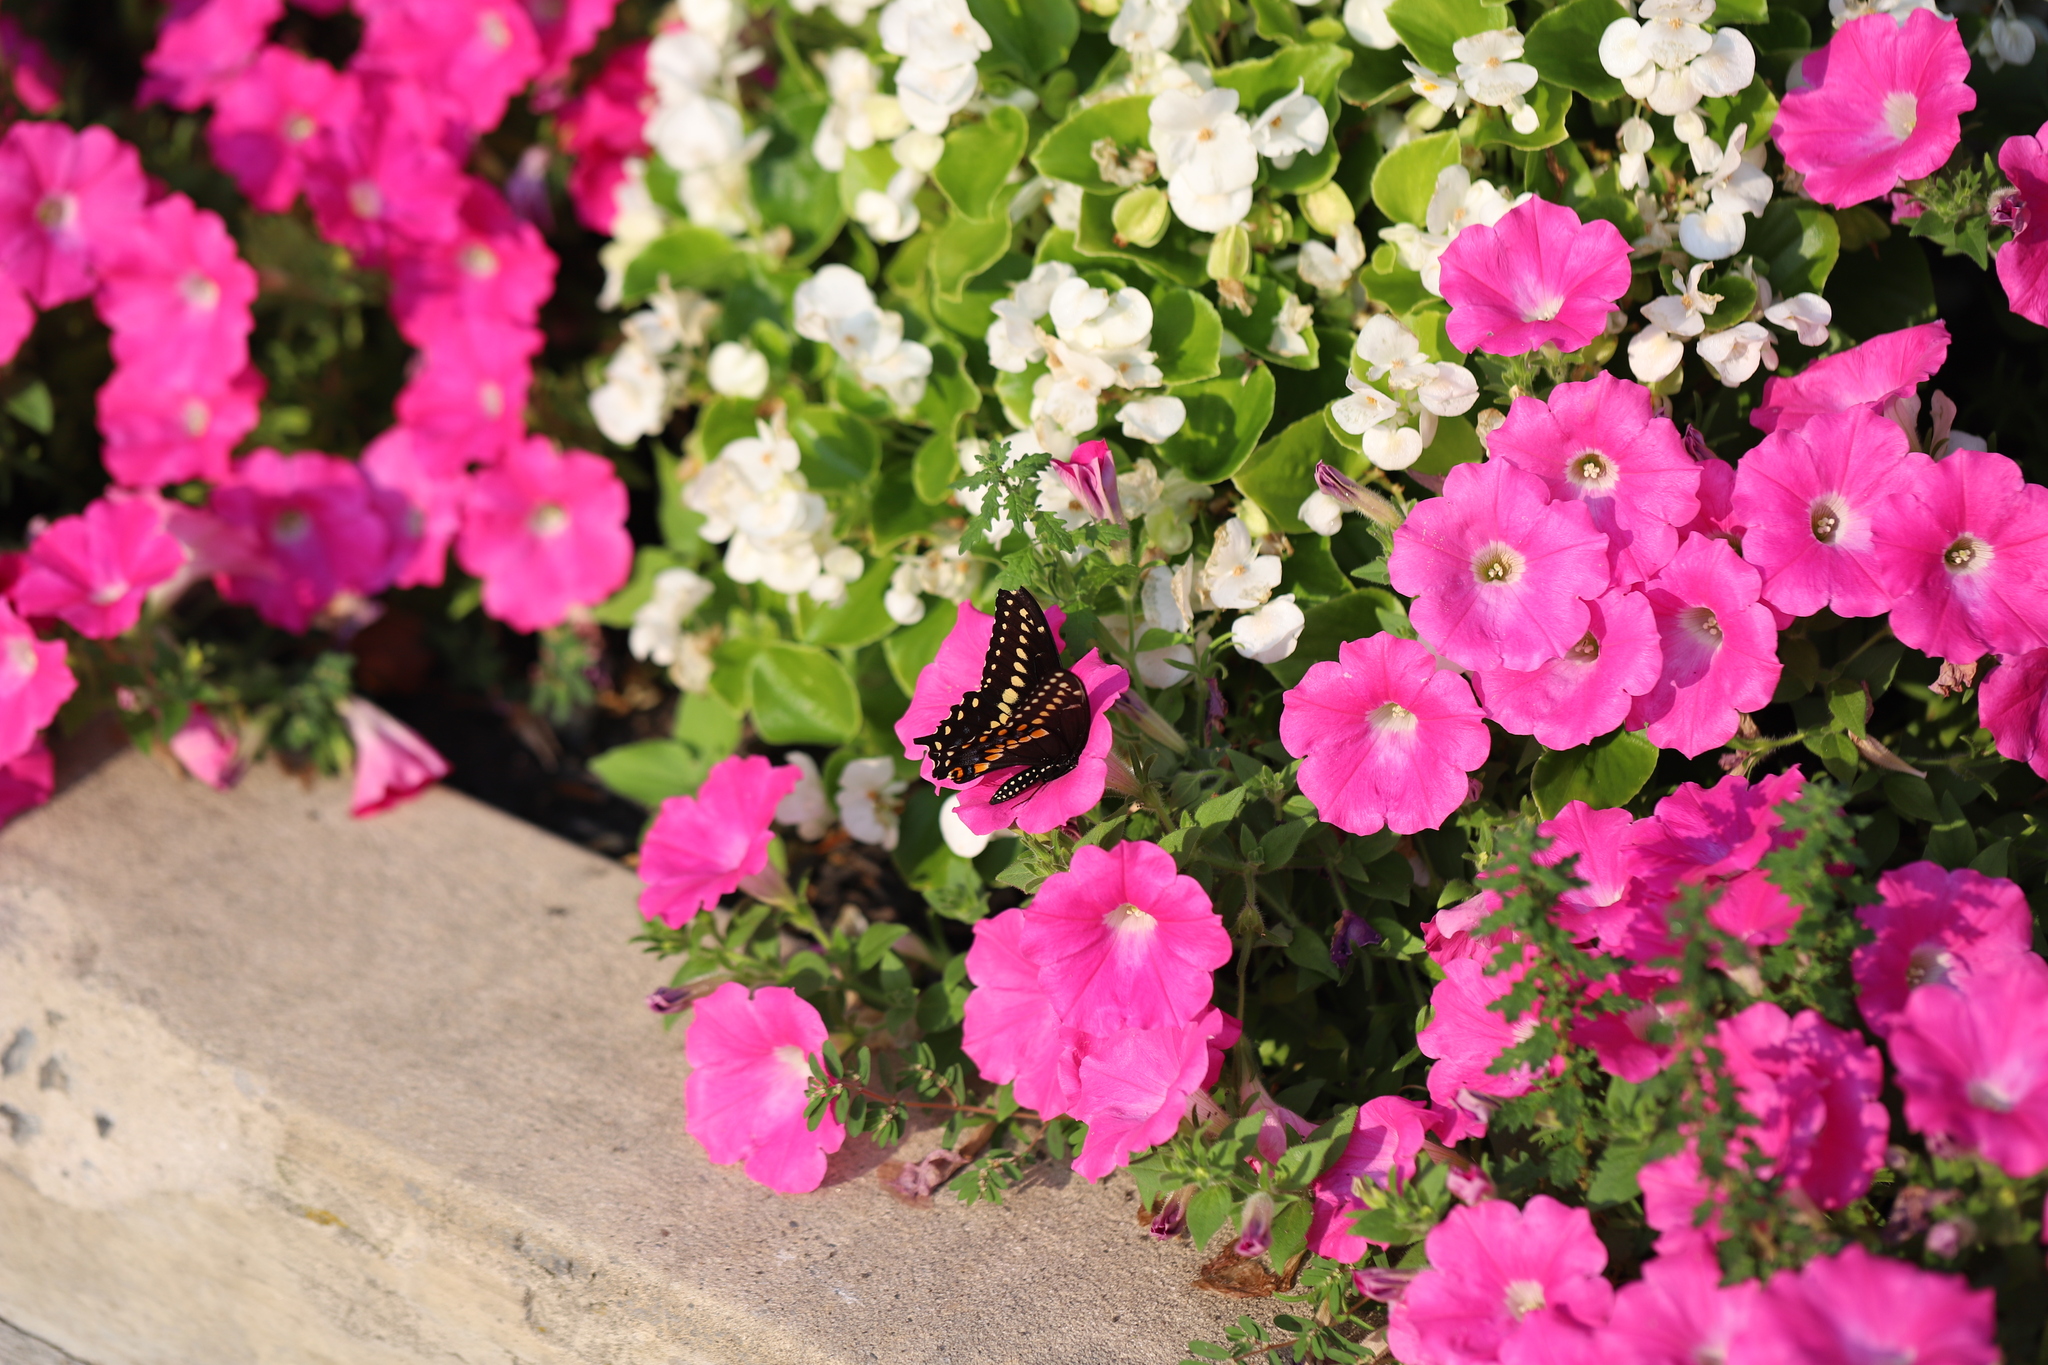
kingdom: Animalia
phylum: Arthropoda
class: Insecta
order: Lepidoptera
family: Papilionidae
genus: Papilio
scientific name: Papilio polyxenes
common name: Black swallowtail
